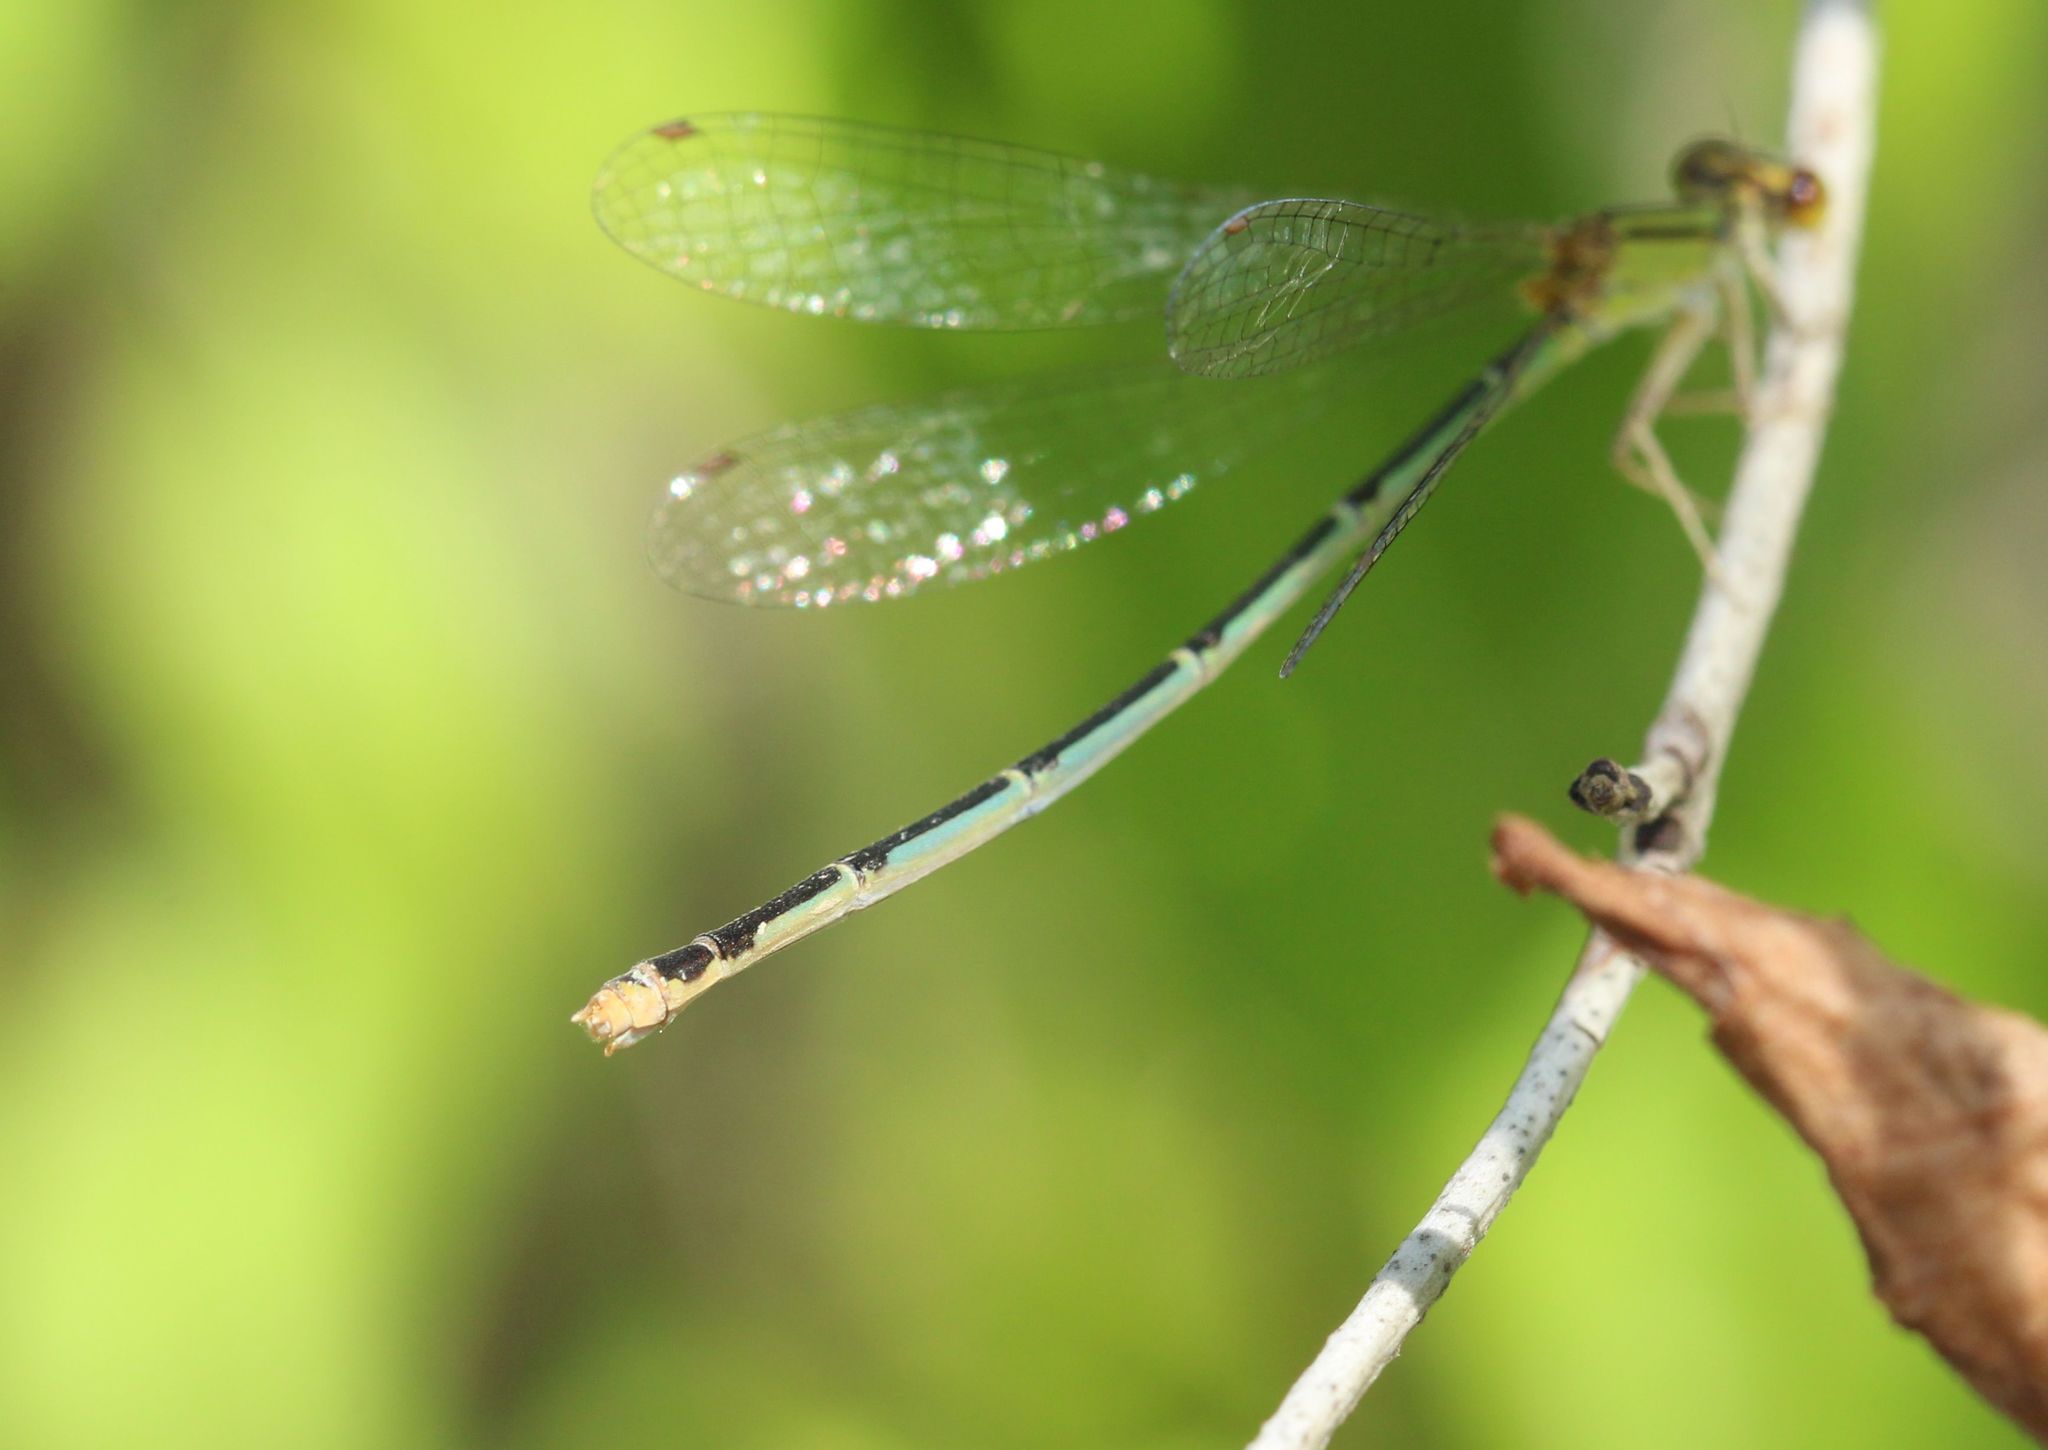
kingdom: Animalia
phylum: Arthropoda
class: Insecta
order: Odonata
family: Coenagrionidae
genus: Enallagma
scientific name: Enallagma signatum
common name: Orange bluet
